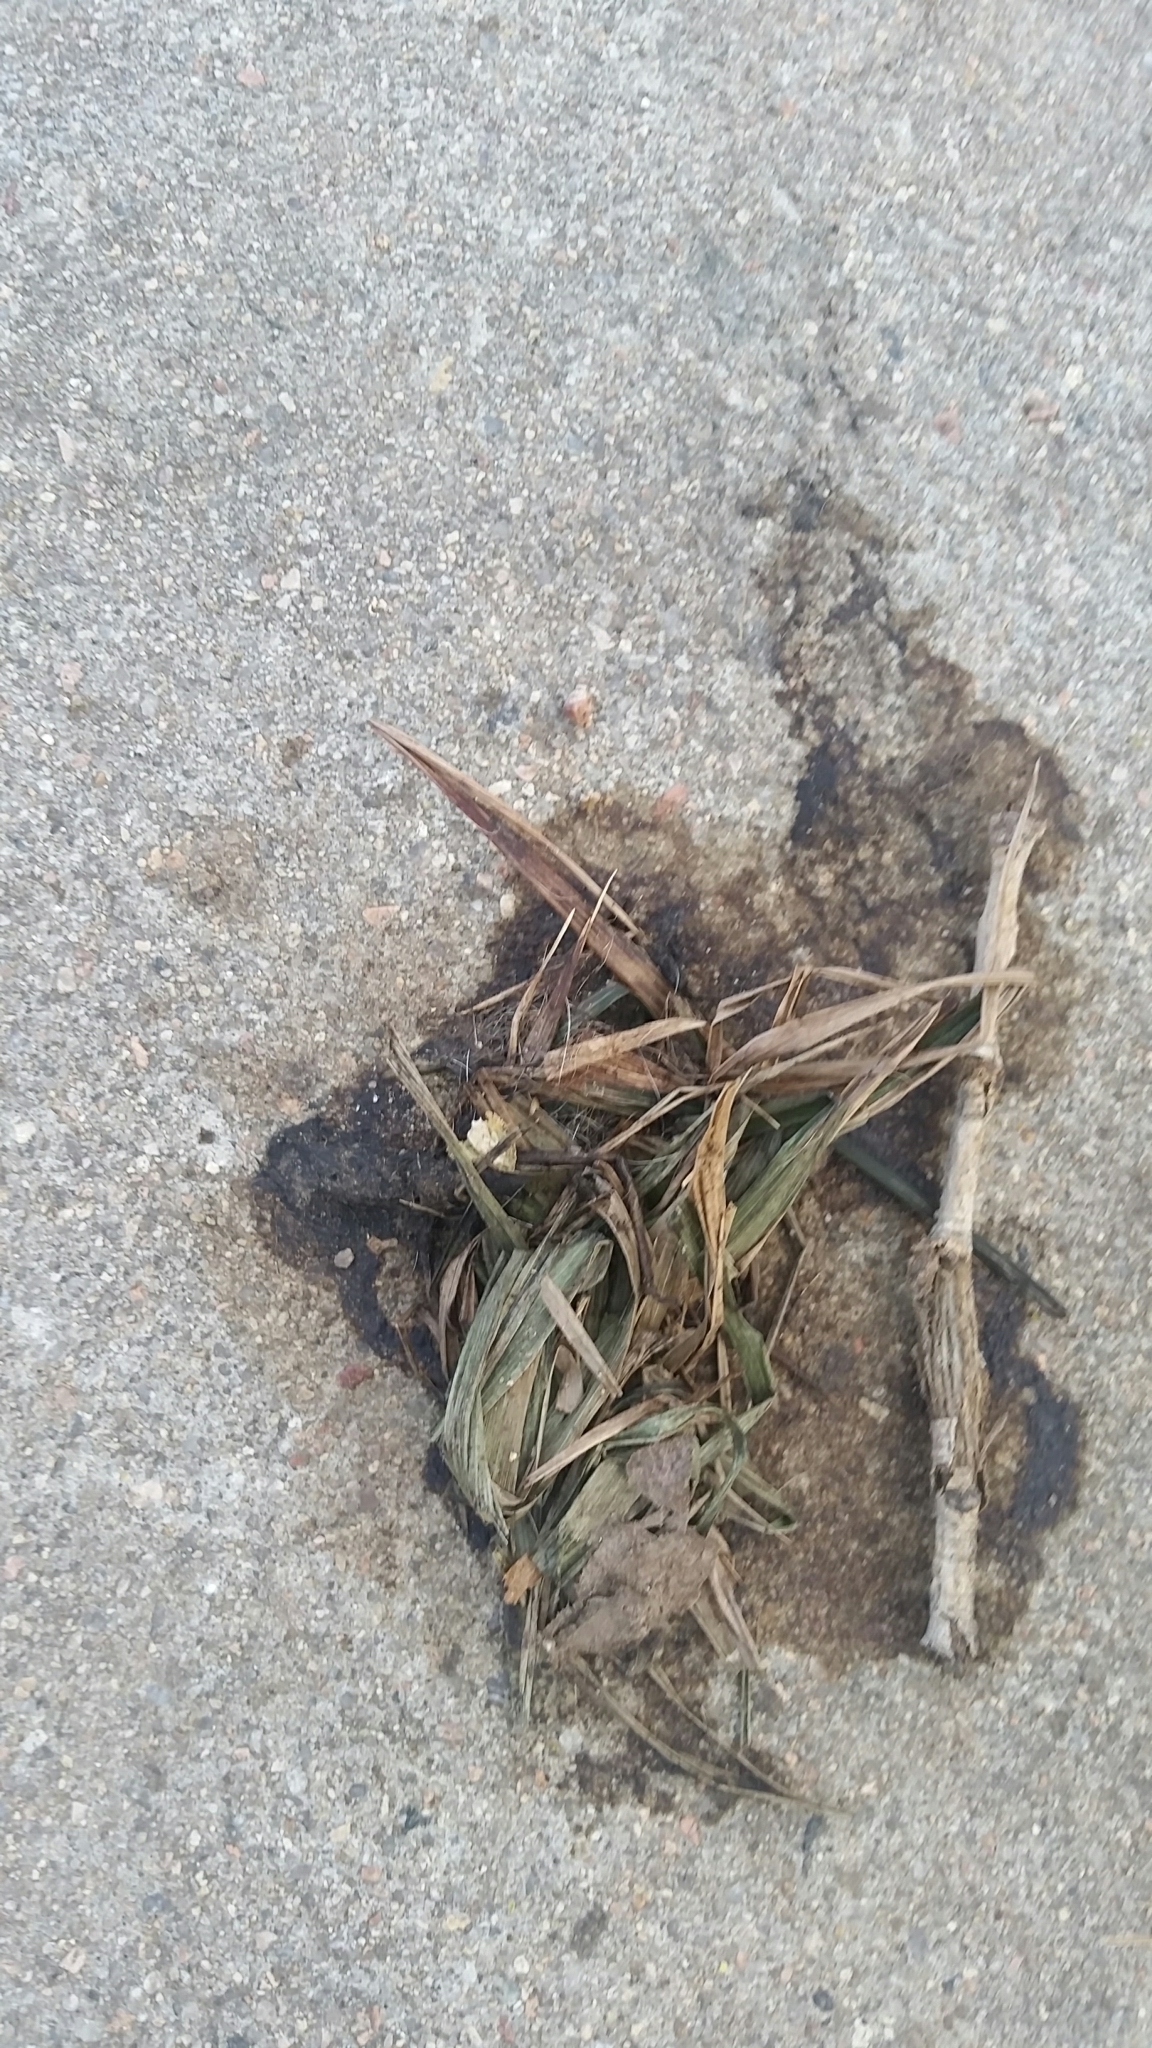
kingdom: Animalia
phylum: Chordata
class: Mammalia
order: Carnivora
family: Canidae
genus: Canis
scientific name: Canis latrans
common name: Coyote
